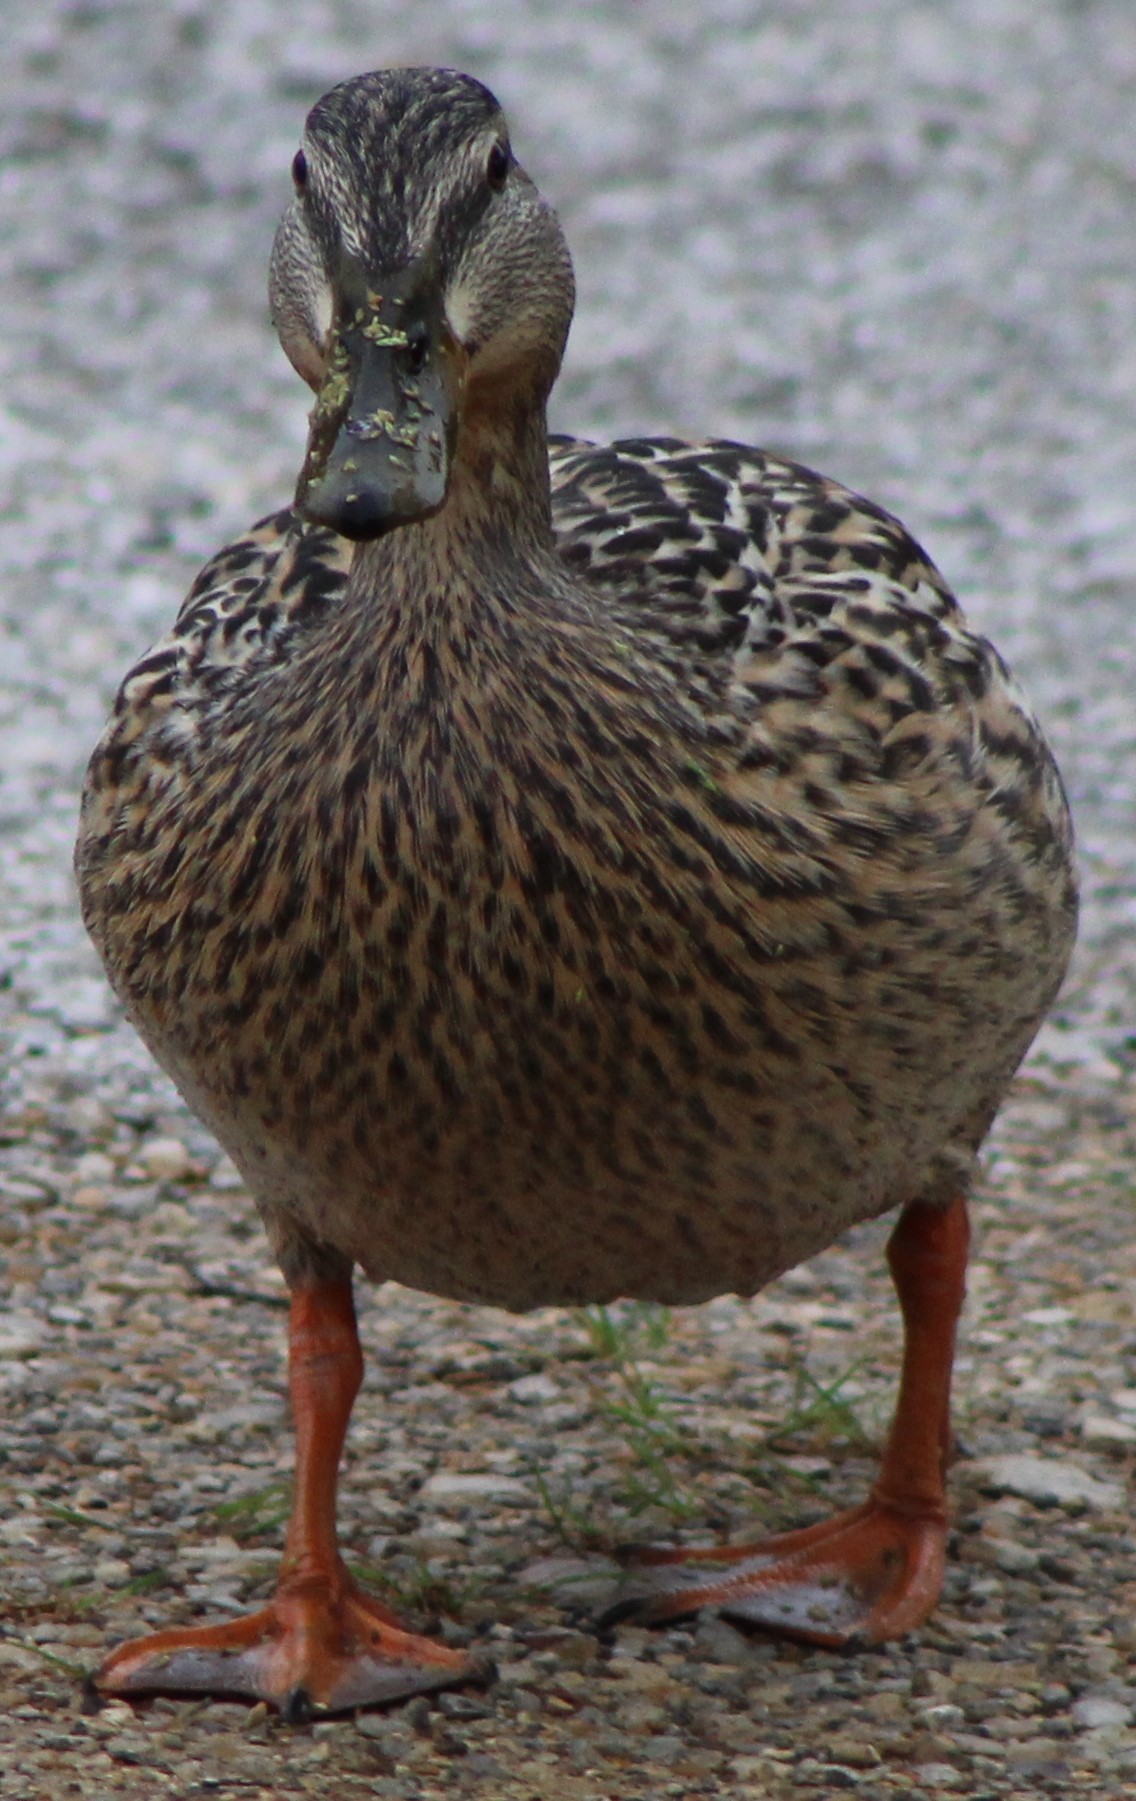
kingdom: Animalia
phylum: Chordata
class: Aves
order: Anseriformes
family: Anatidae
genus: Anas
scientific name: Anas platyrhynchos
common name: Mallard
